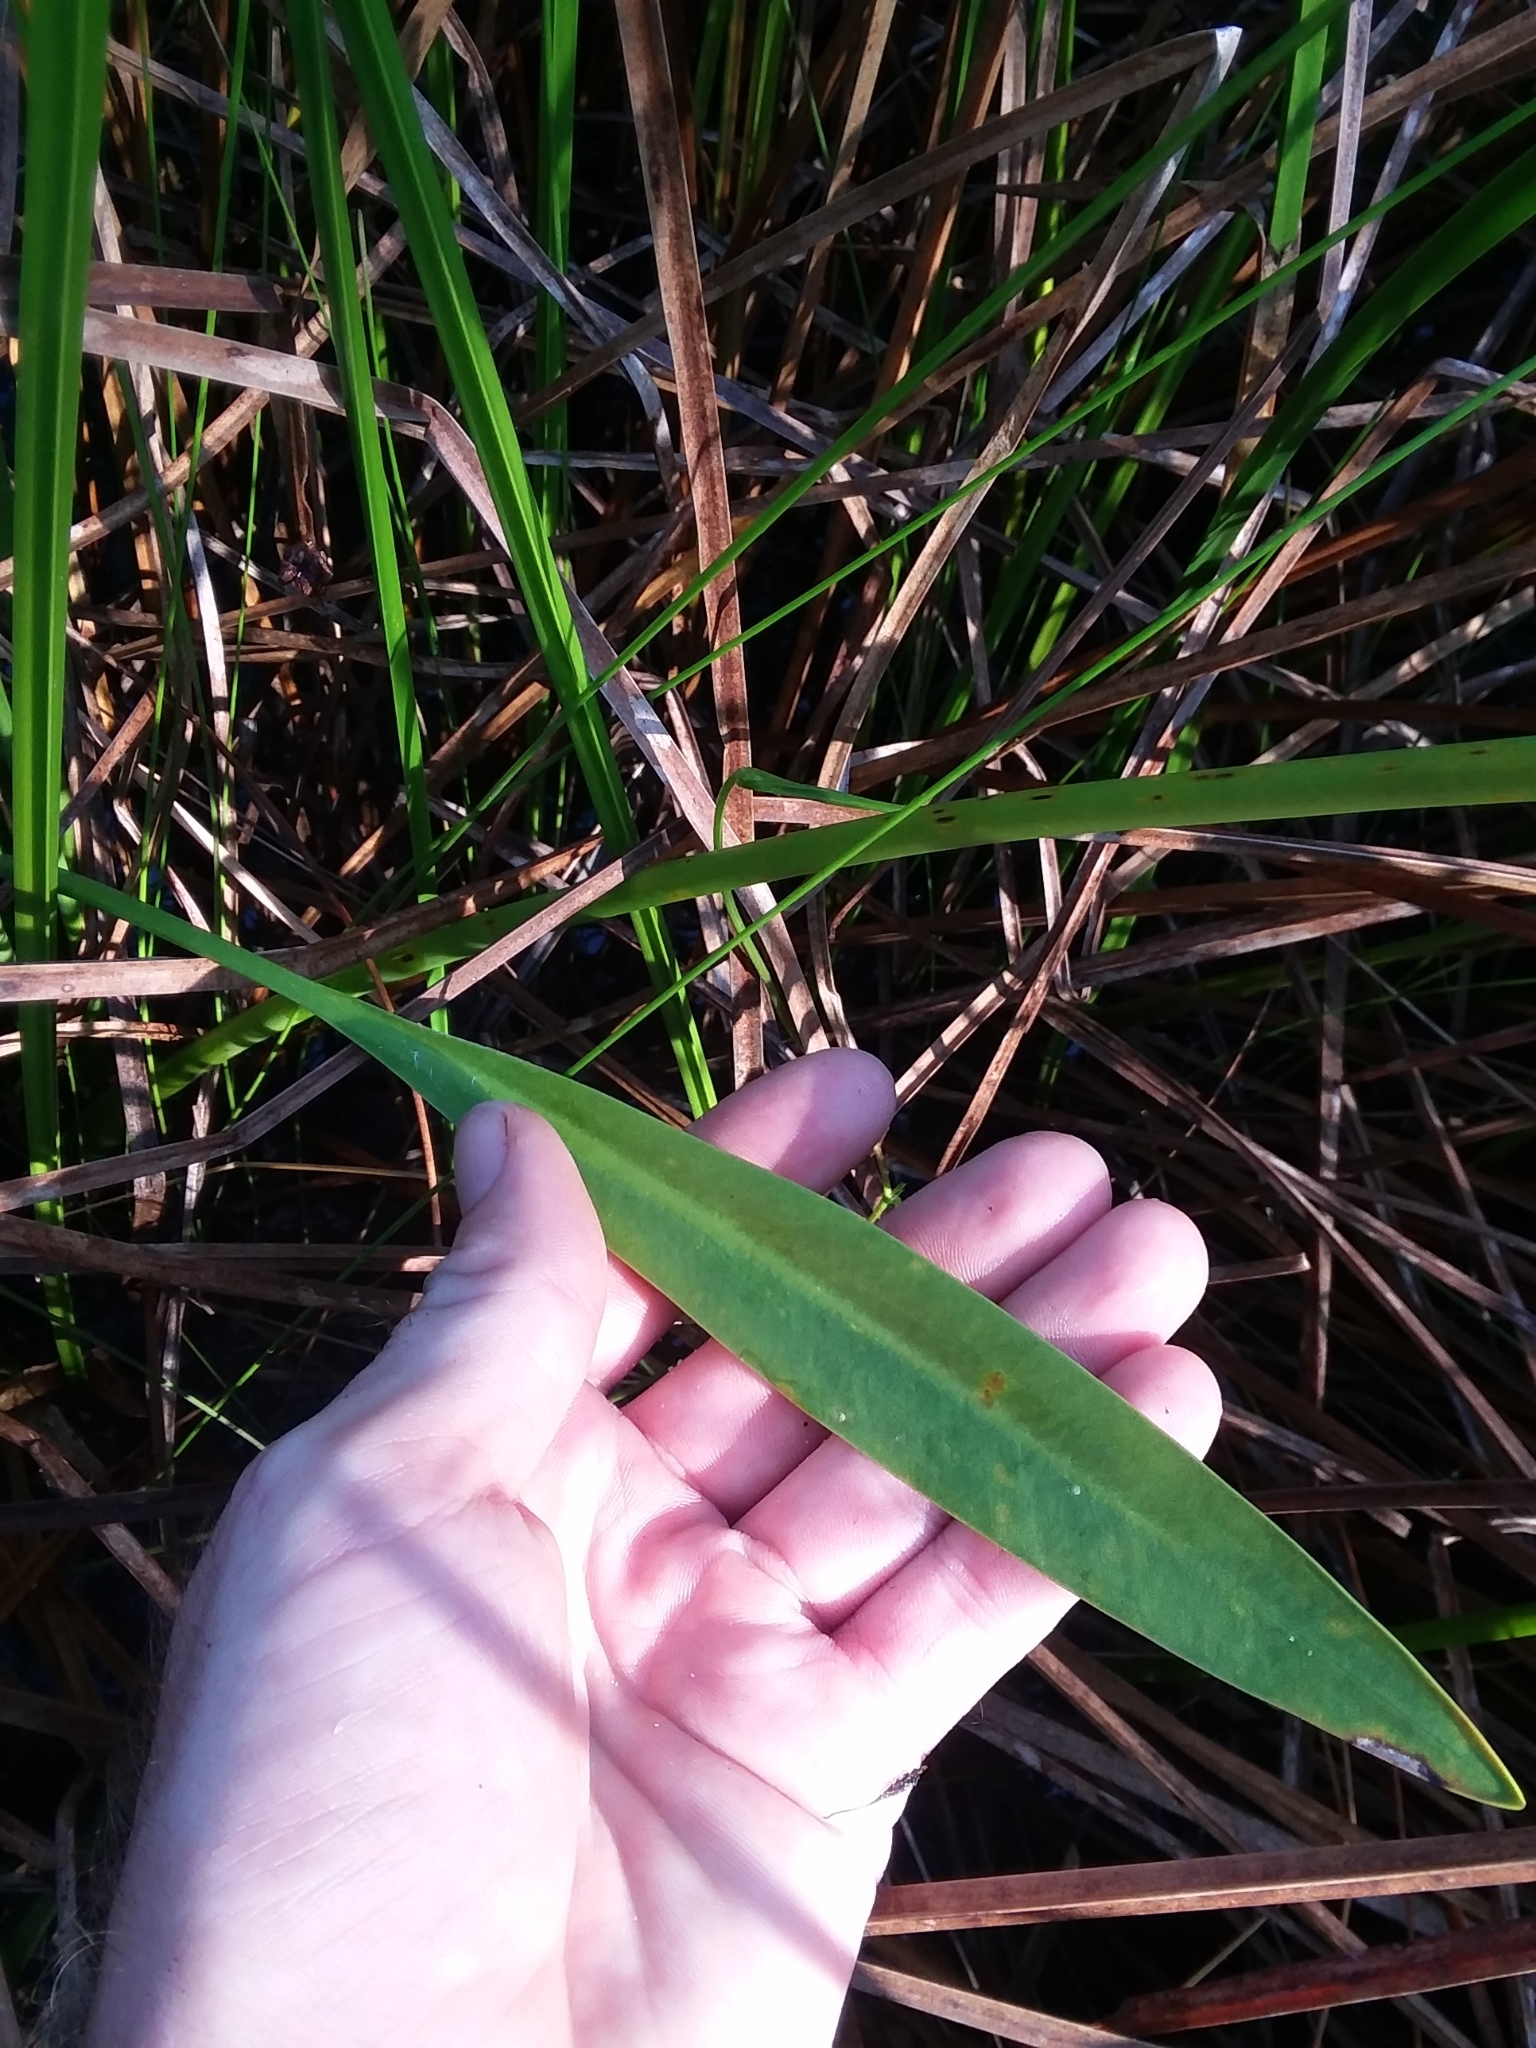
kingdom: Plantae
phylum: Tracheophyta
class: Liliopsida
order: Alismatales
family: Alismataceae
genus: Sagittaria
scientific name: Sagittaria lancifolia
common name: Lance-leaf arrowhead
